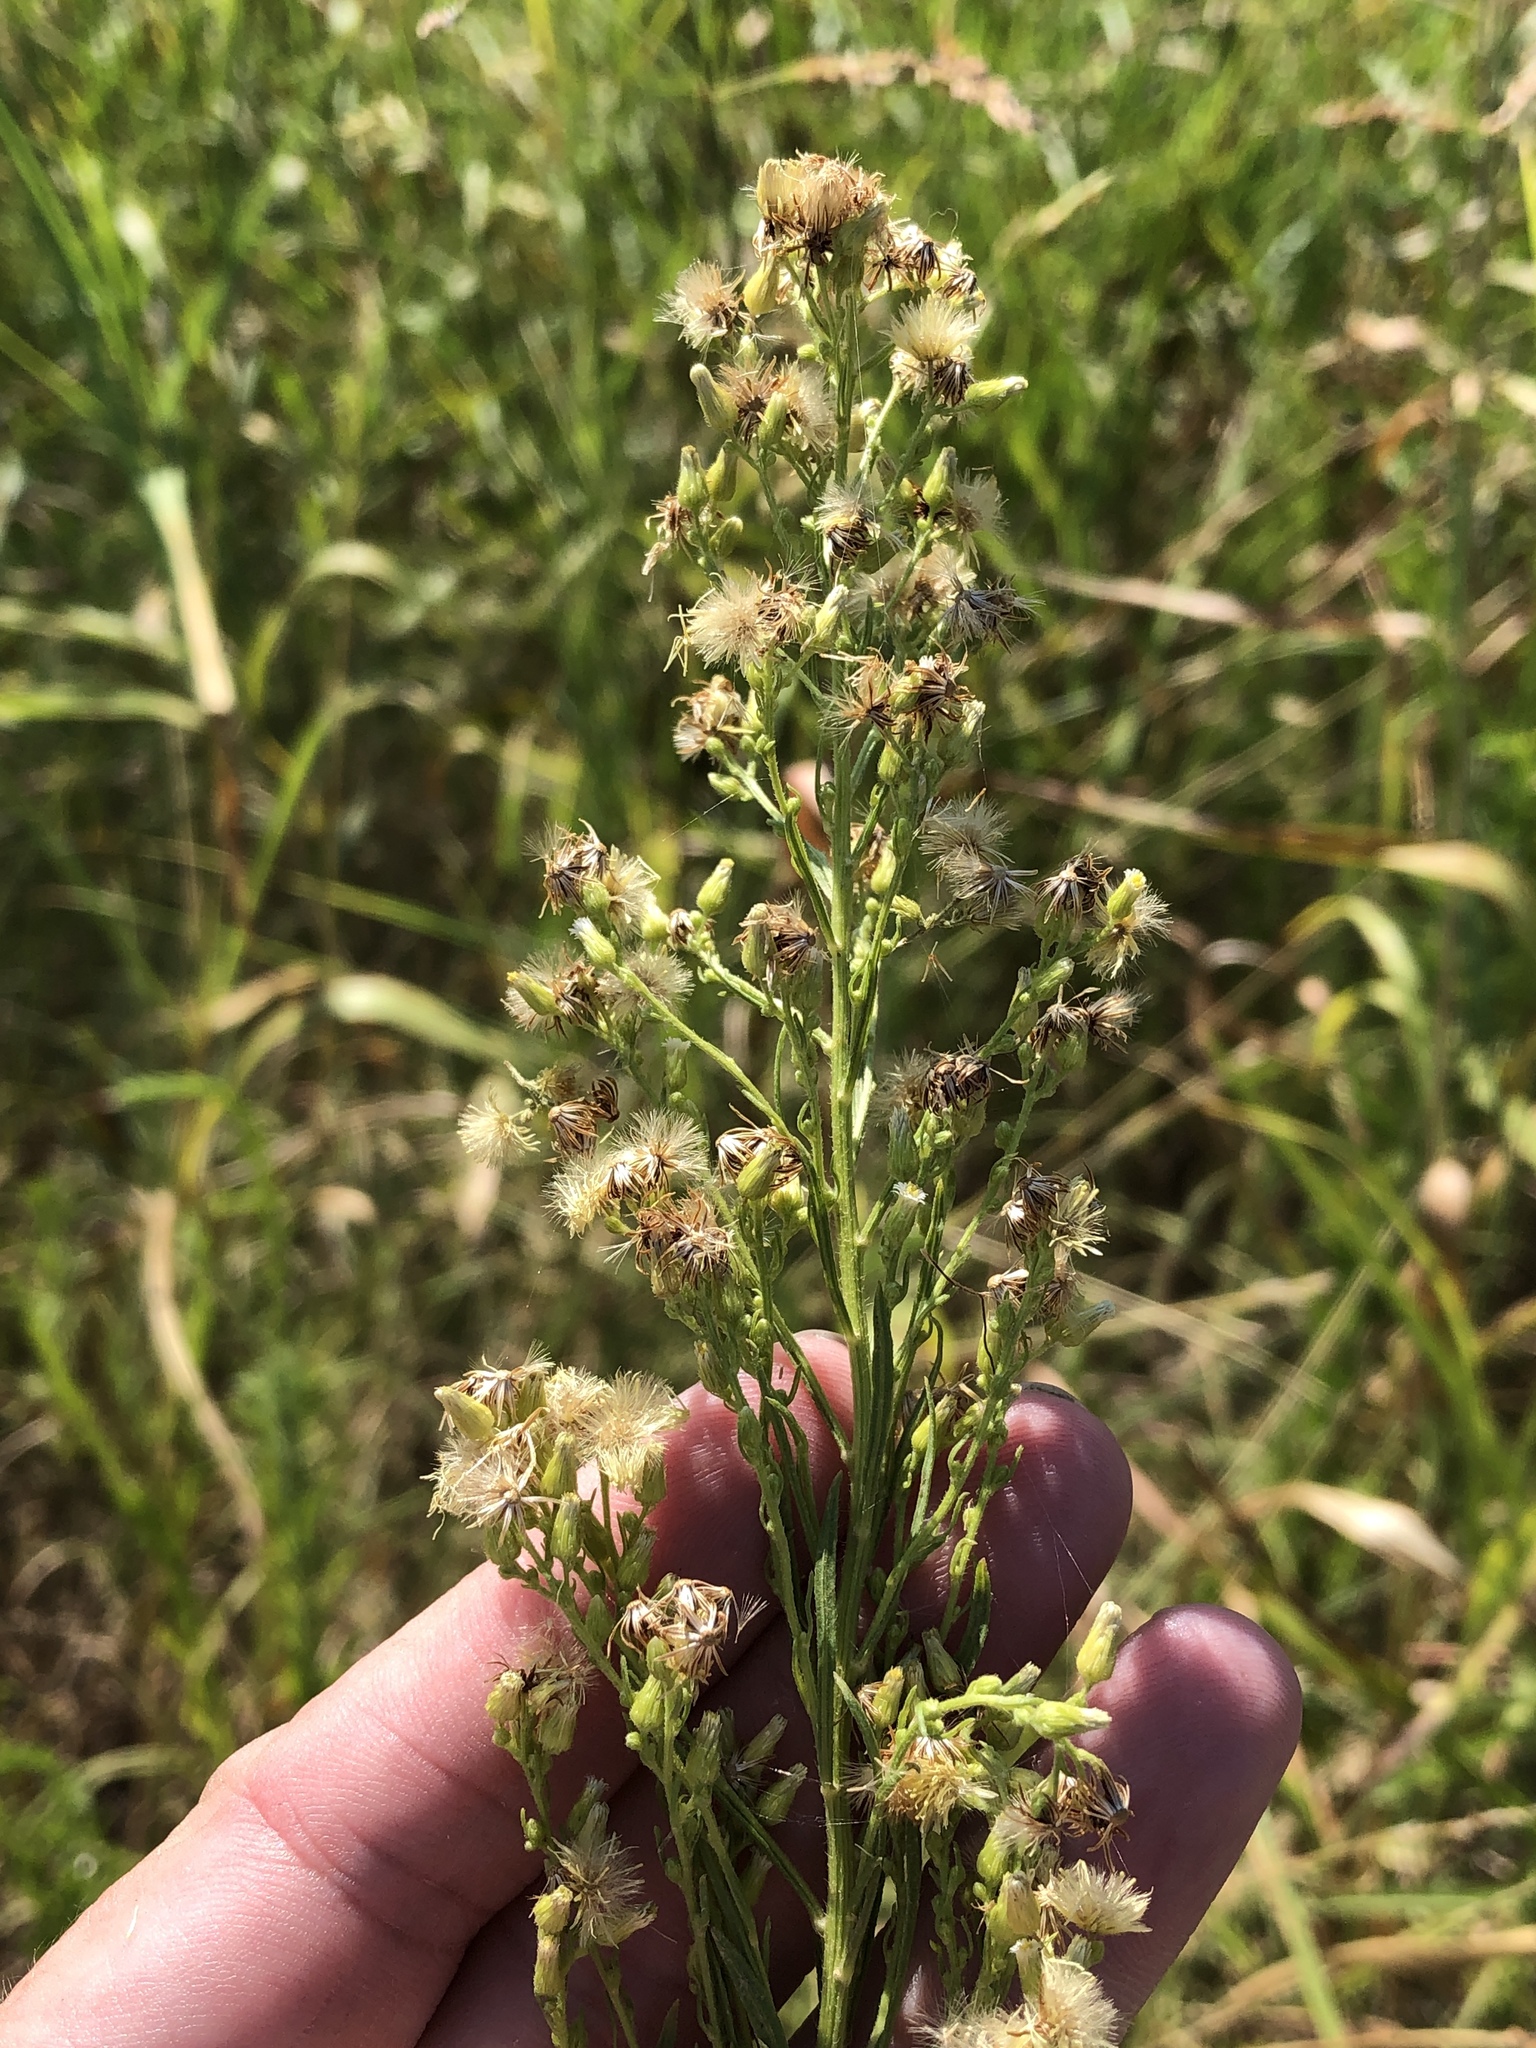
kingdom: Plantae
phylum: Tracheophyta
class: Magnoliopsida
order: Asterales
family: Asteraceae
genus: Erigeron
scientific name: Erigeron canadensis
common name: Canadian fleabane
